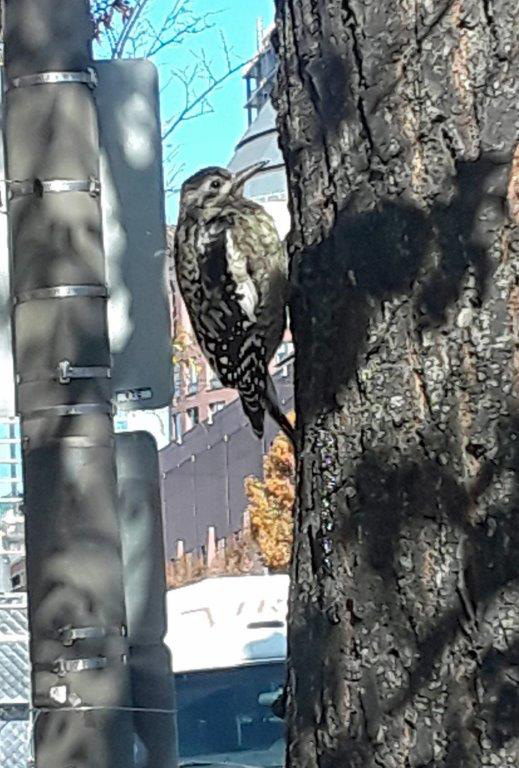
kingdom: Animalia
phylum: Chordata
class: Aves
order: Piciformes
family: Picidae
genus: Sphyrapicus
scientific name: Sphyrapicus varius
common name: Yellow-bellied sapsucker
